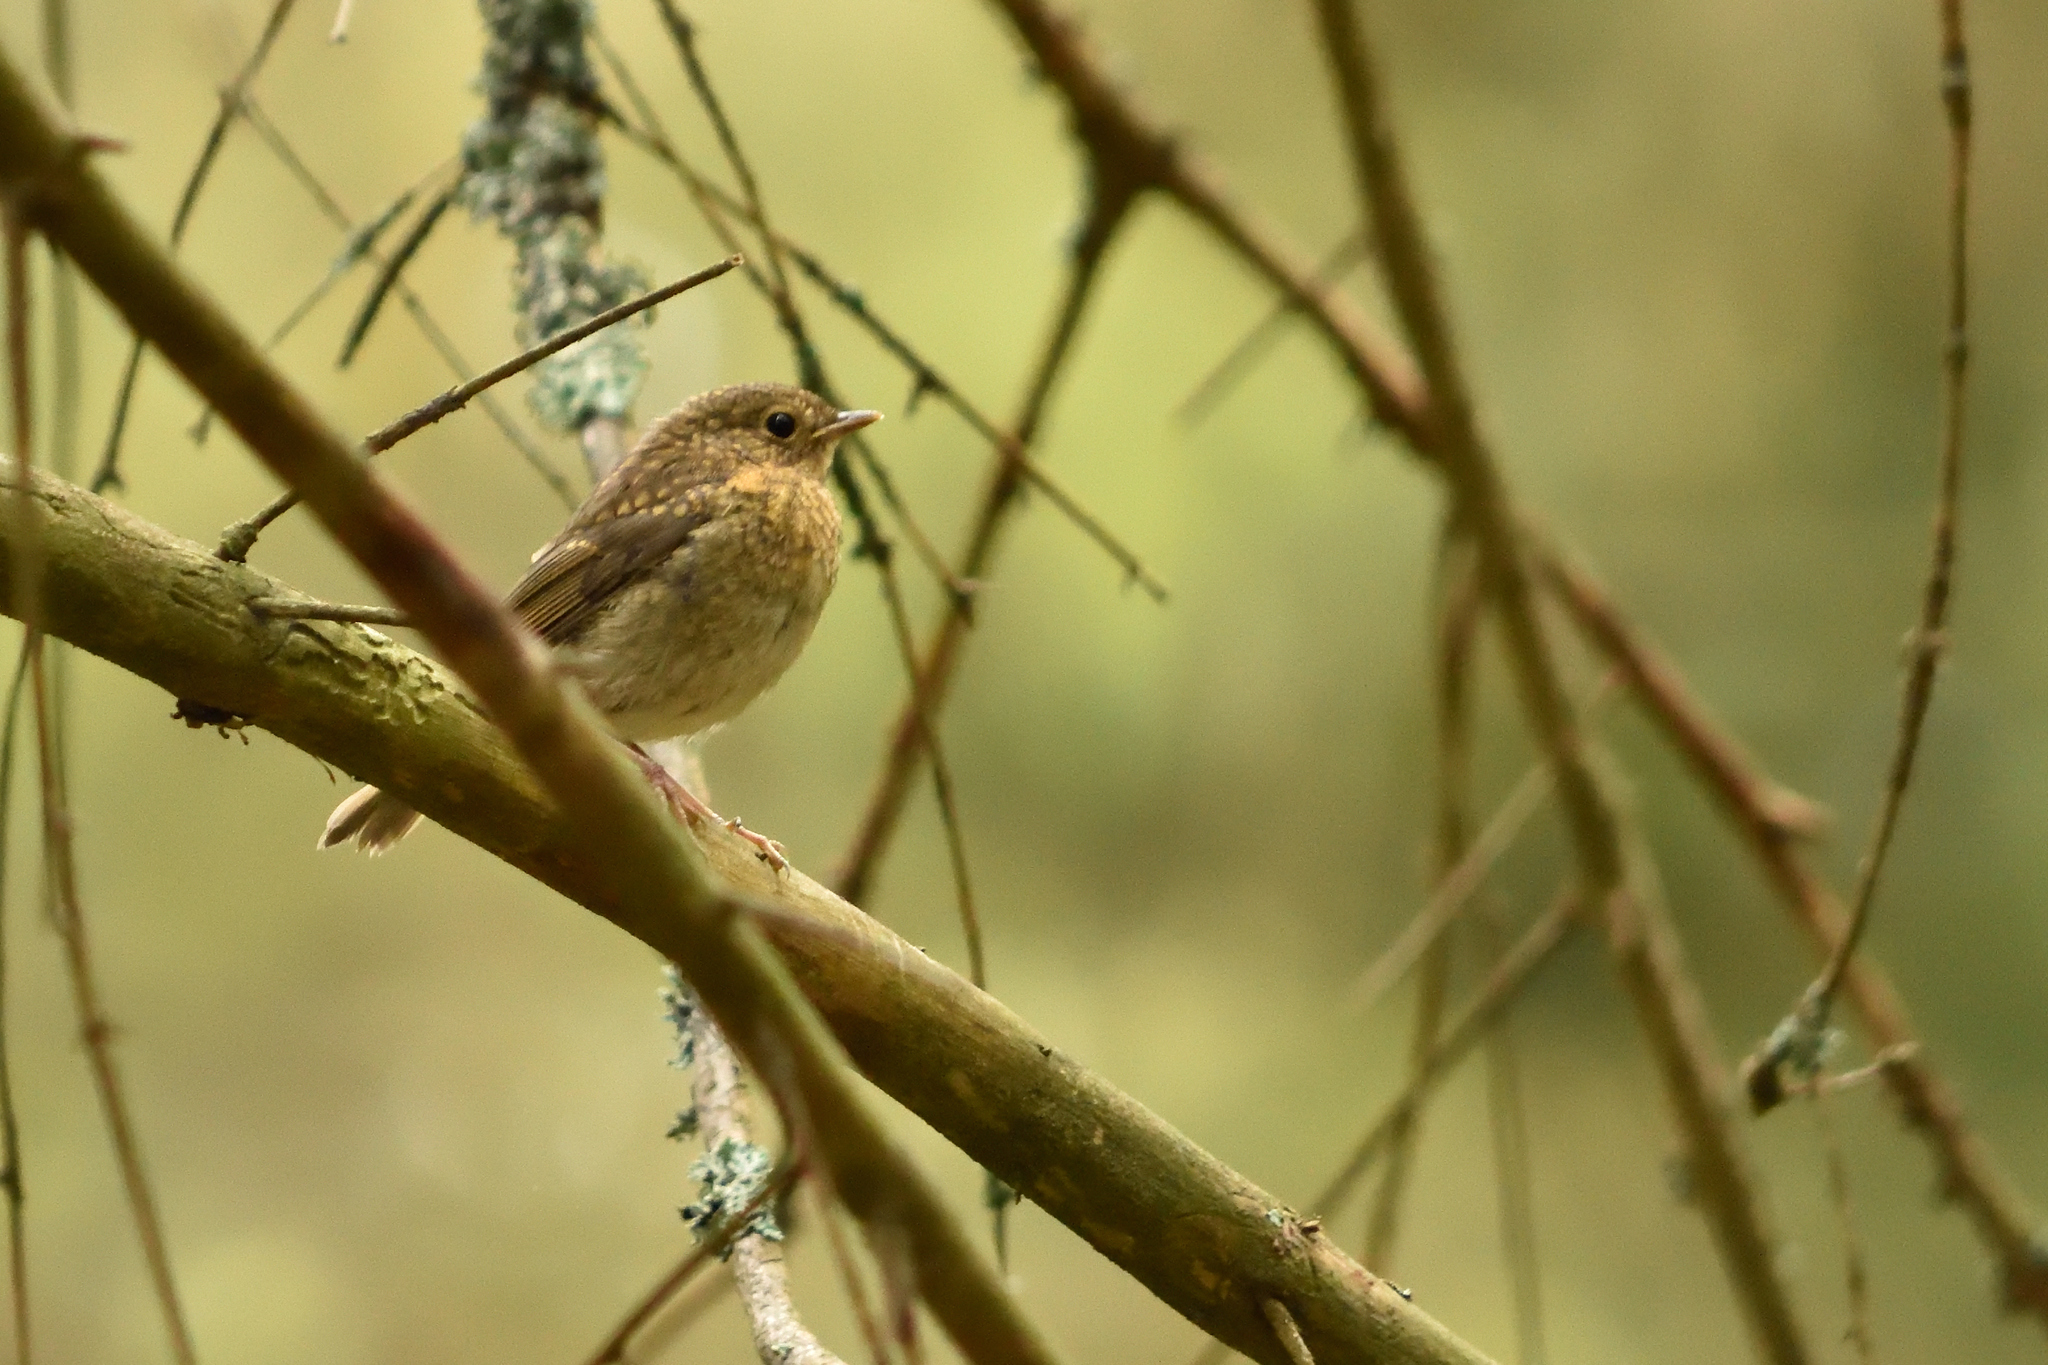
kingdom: Animalia
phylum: Chordata
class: Aves
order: Passeriformes
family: Muscicapidae
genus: Erithacus
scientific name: Erithacus rubecula
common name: European robin
